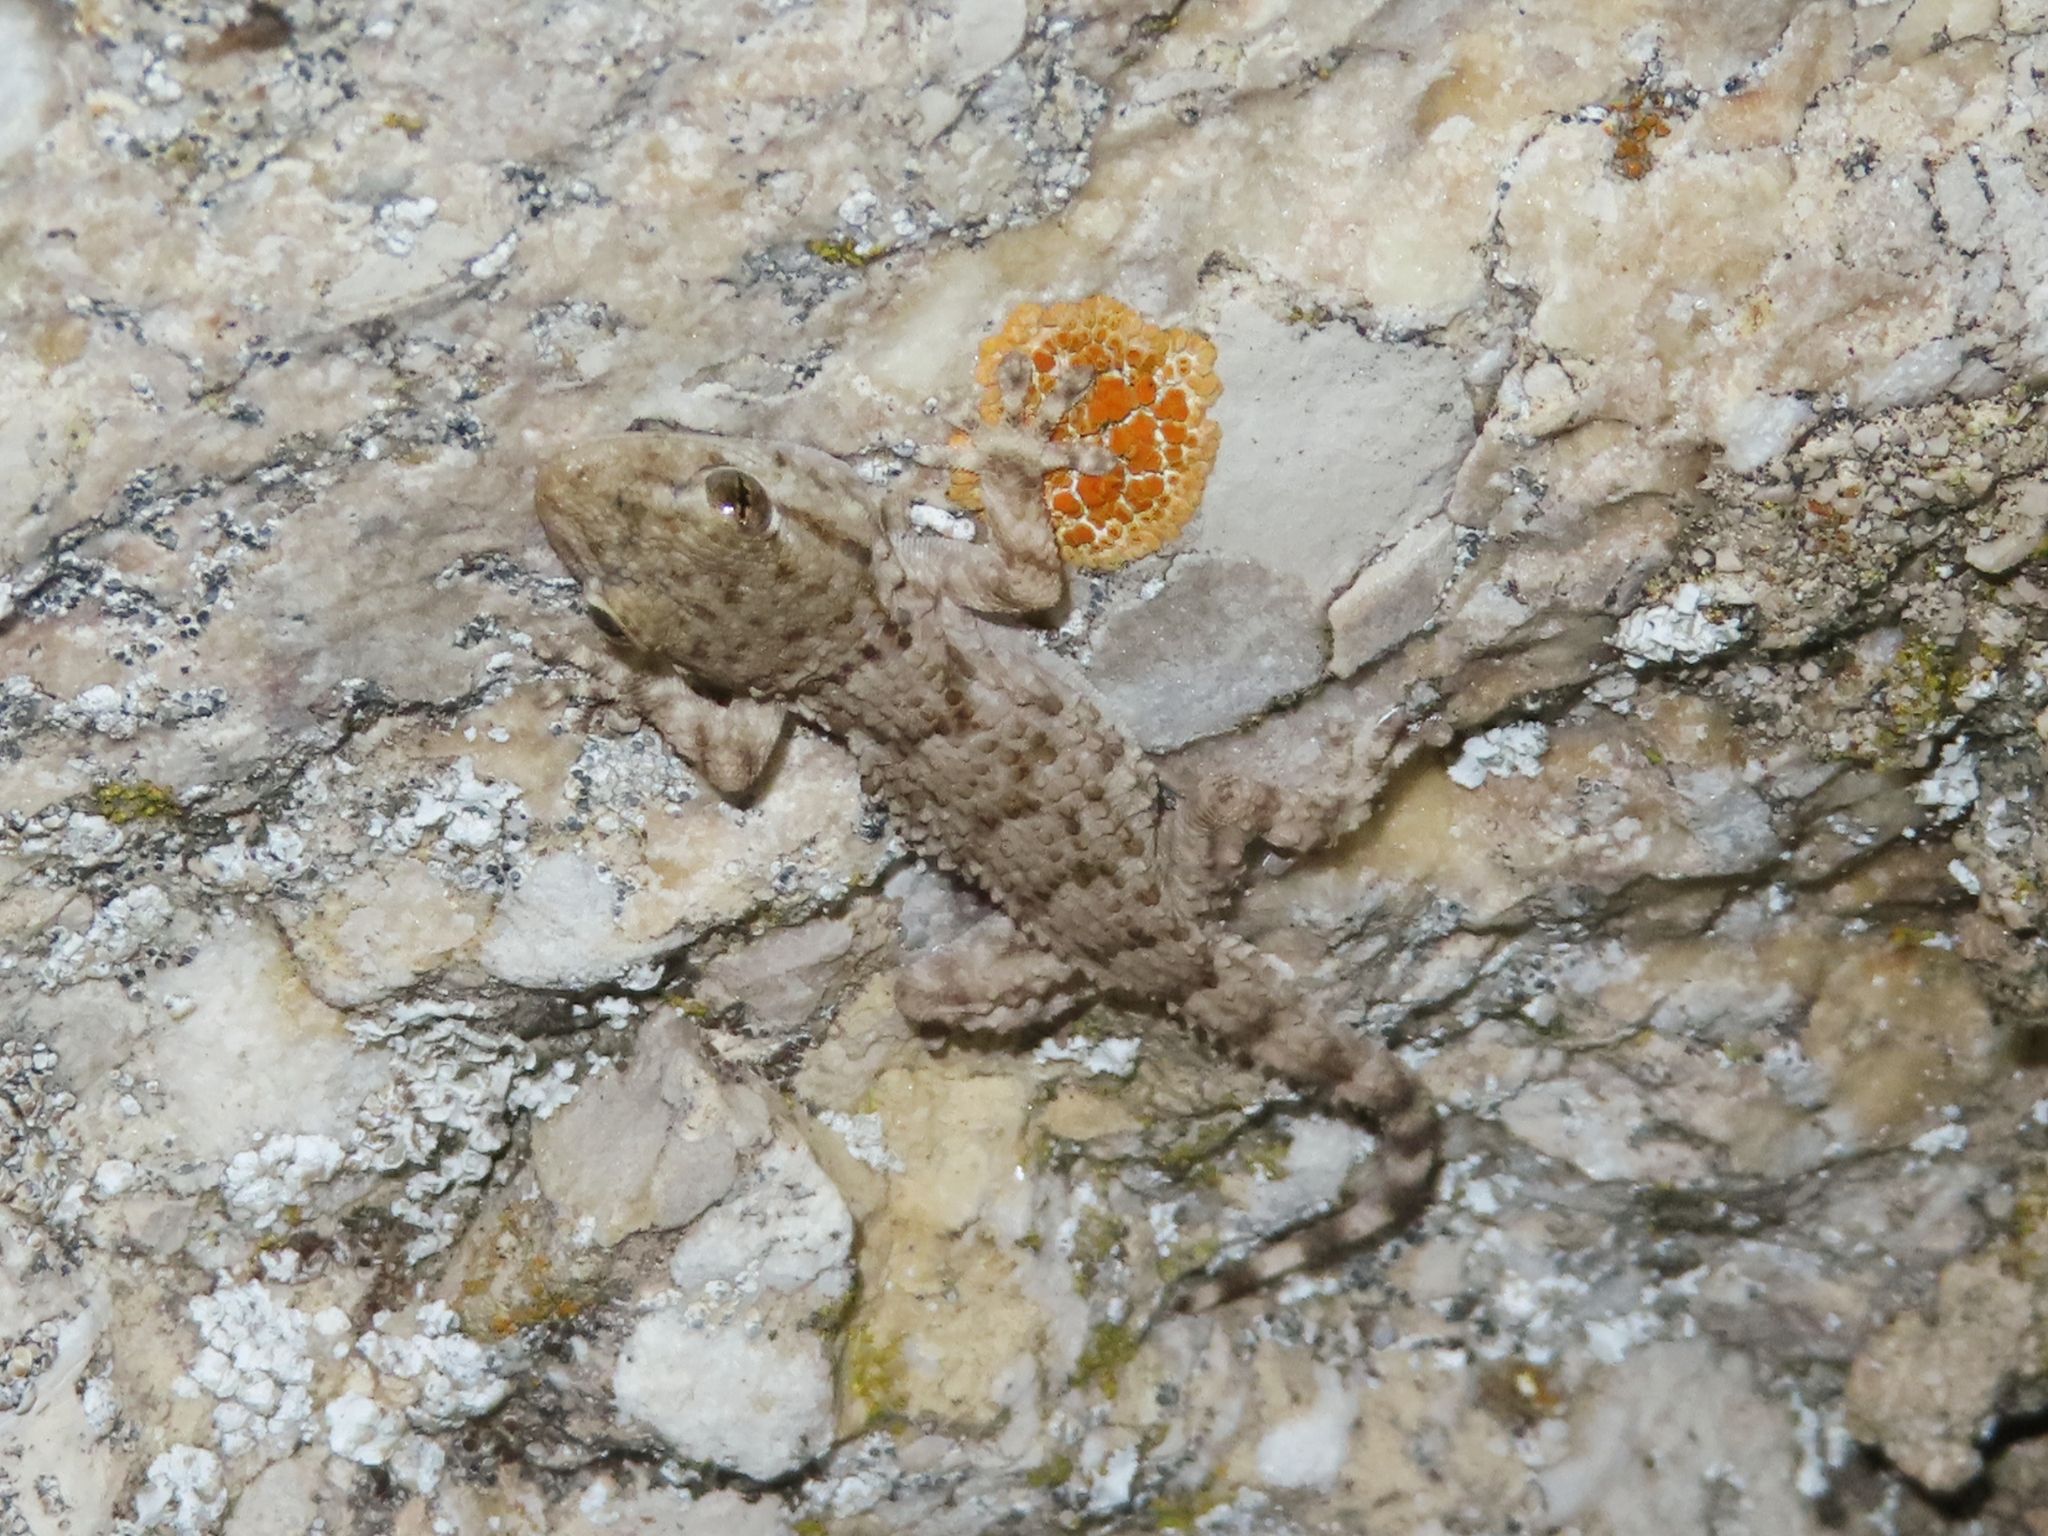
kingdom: Animalia
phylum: Chordata
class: Squamata
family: Phyllodactylidae
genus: Tarentola
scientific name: Tarentola mauritanica
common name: Moorish gecko
